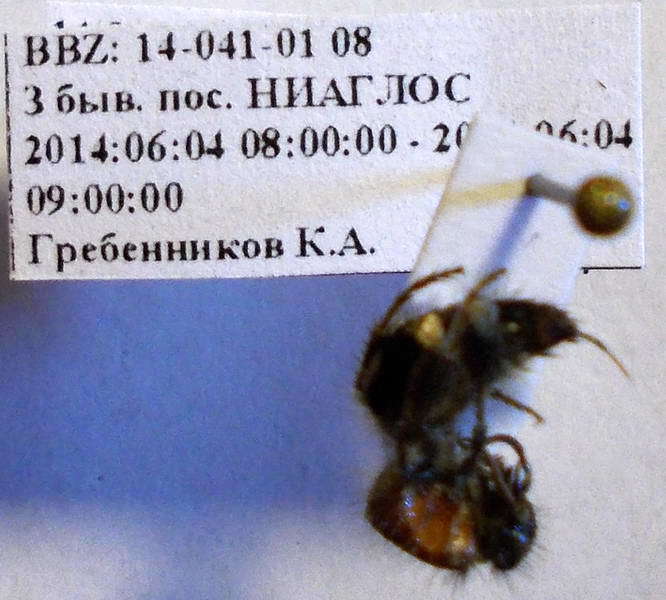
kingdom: Animalia
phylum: Arthropoda
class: Insecta
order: Hymenoptera
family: Mutillidae
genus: Nemka
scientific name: Nemka viduata
